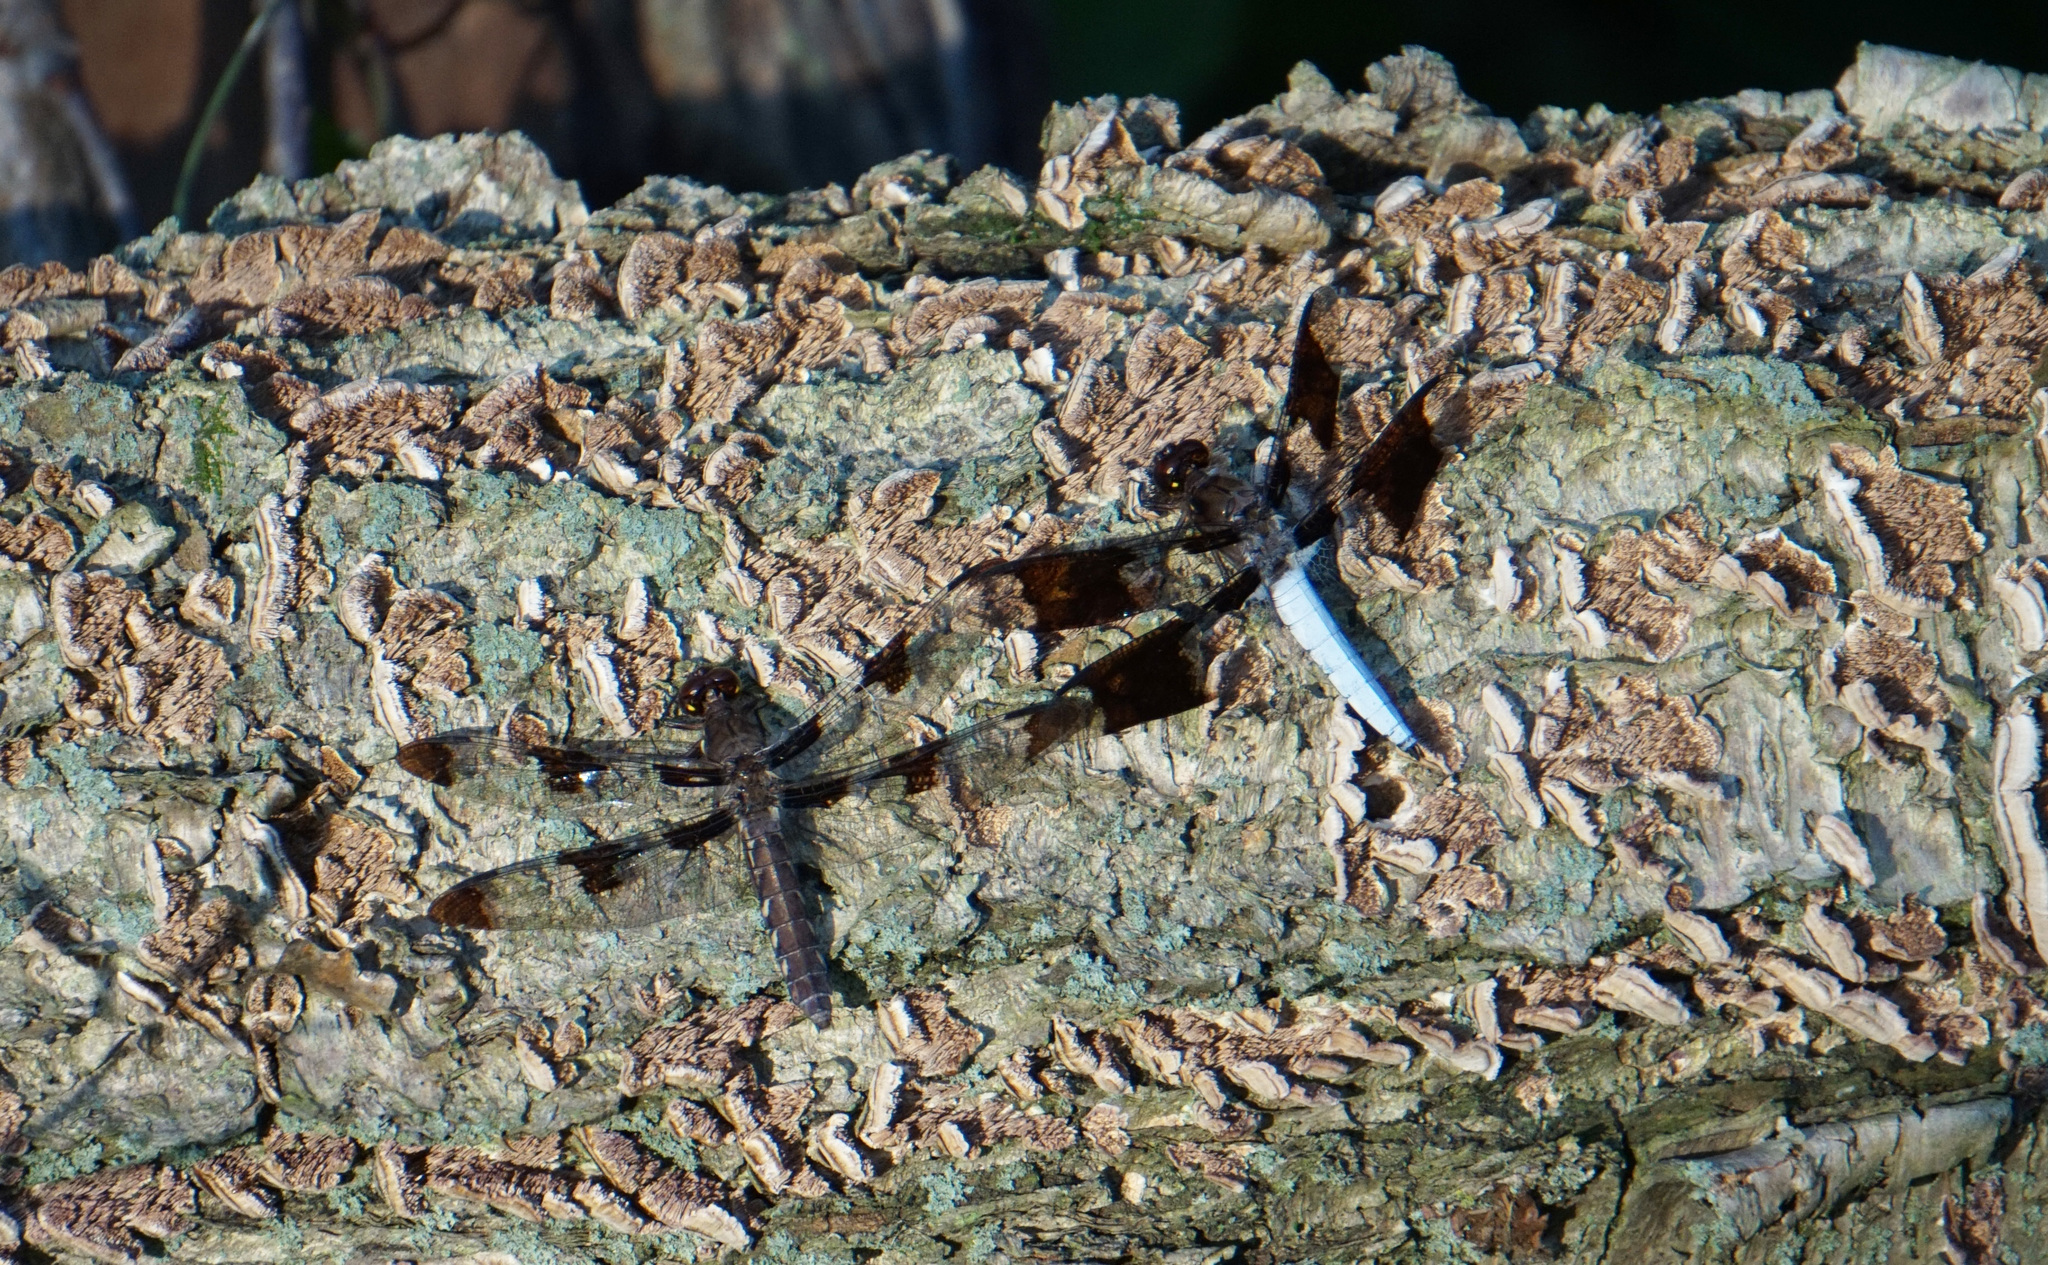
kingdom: Animalia
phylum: Arthropoda
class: Insecta
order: Odonata
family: Libellulidae
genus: Plathemis
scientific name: Plathemis lydia
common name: Common whitetail
